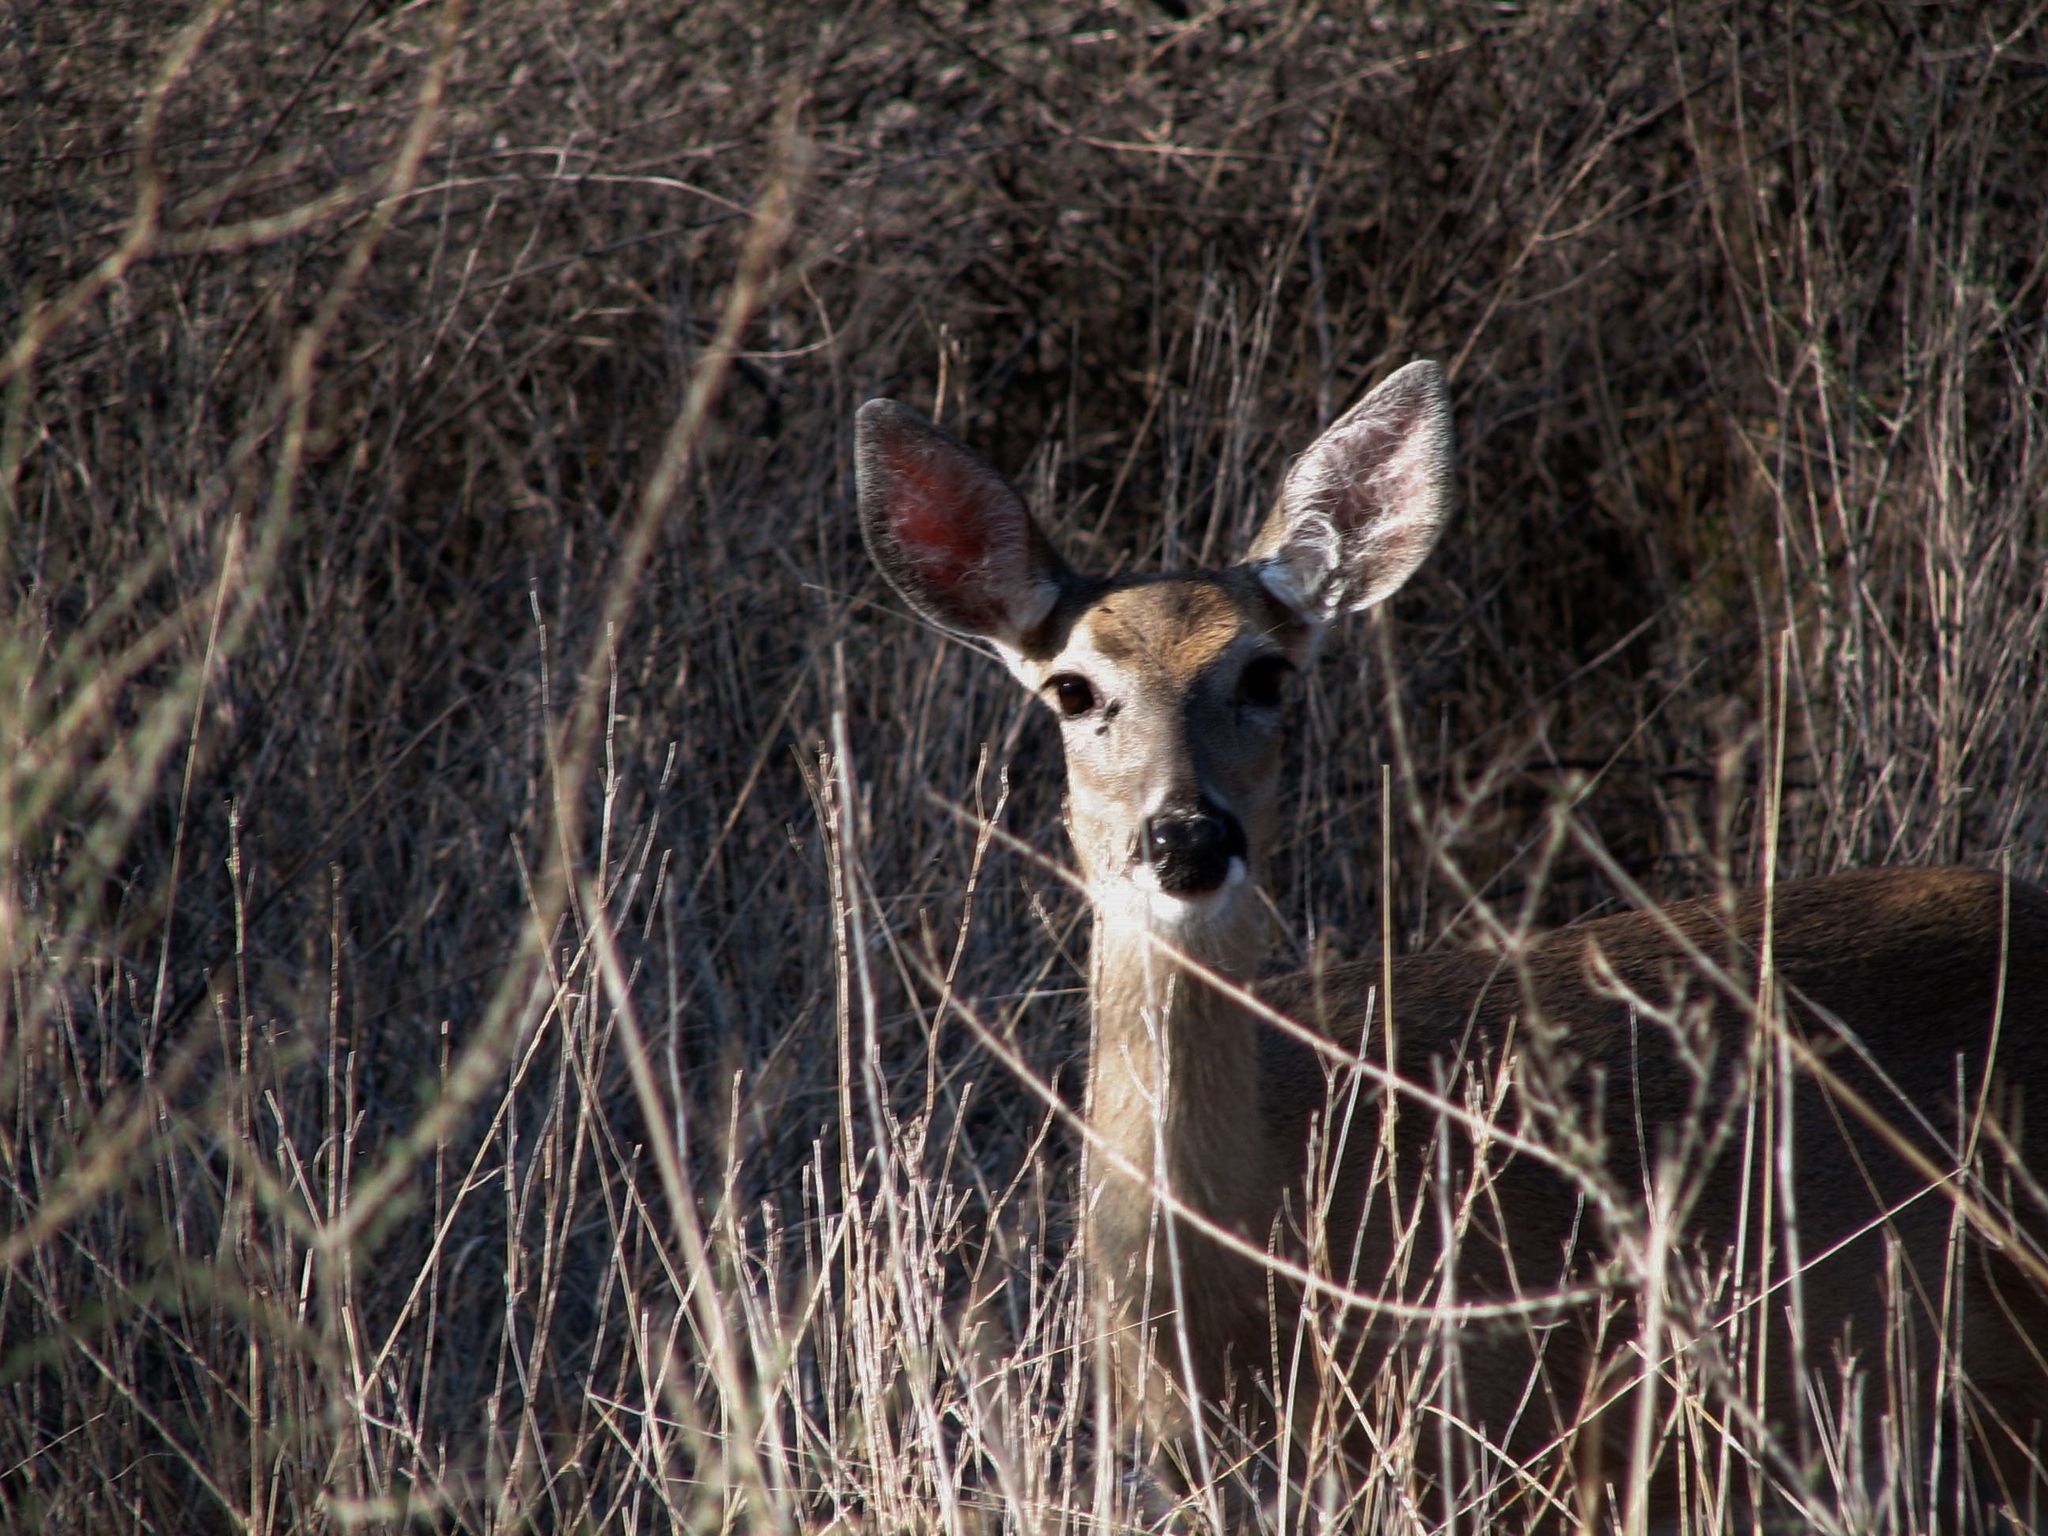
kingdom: Animalia
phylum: Chordata
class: Mammalia
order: Artiodactyla
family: Cervidae
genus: Odocoileus
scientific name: Odocoileus virginianus
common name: White-tailed deer
